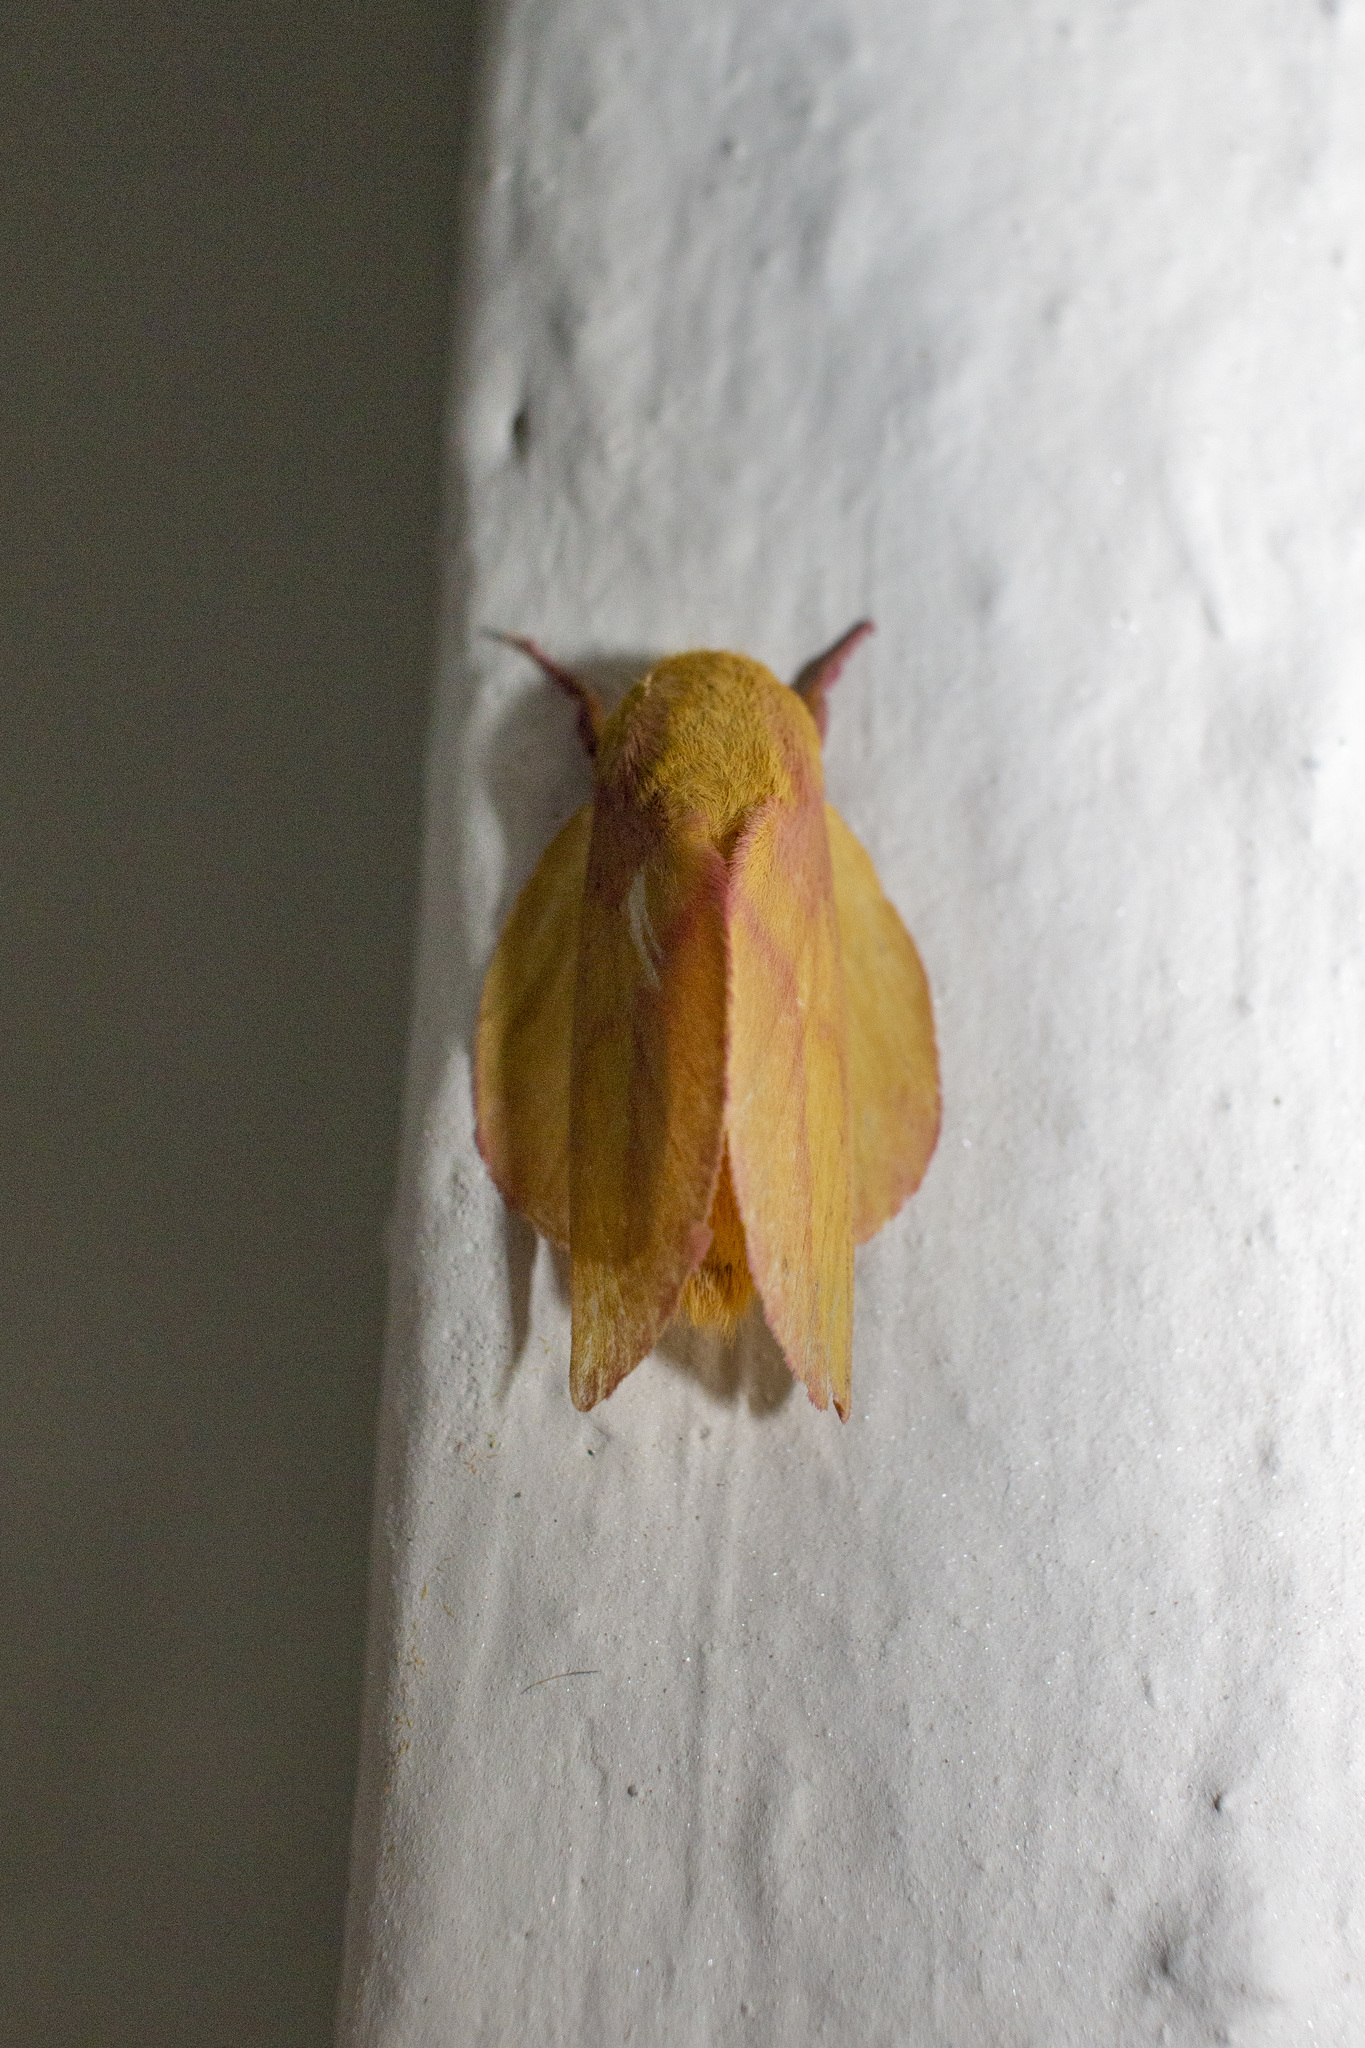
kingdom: Animalia
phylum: Arthropoda
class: Insecta
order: Lepidoptera
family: Saturniidae
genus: Psilopygida
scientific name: Psilopygida walkeri
